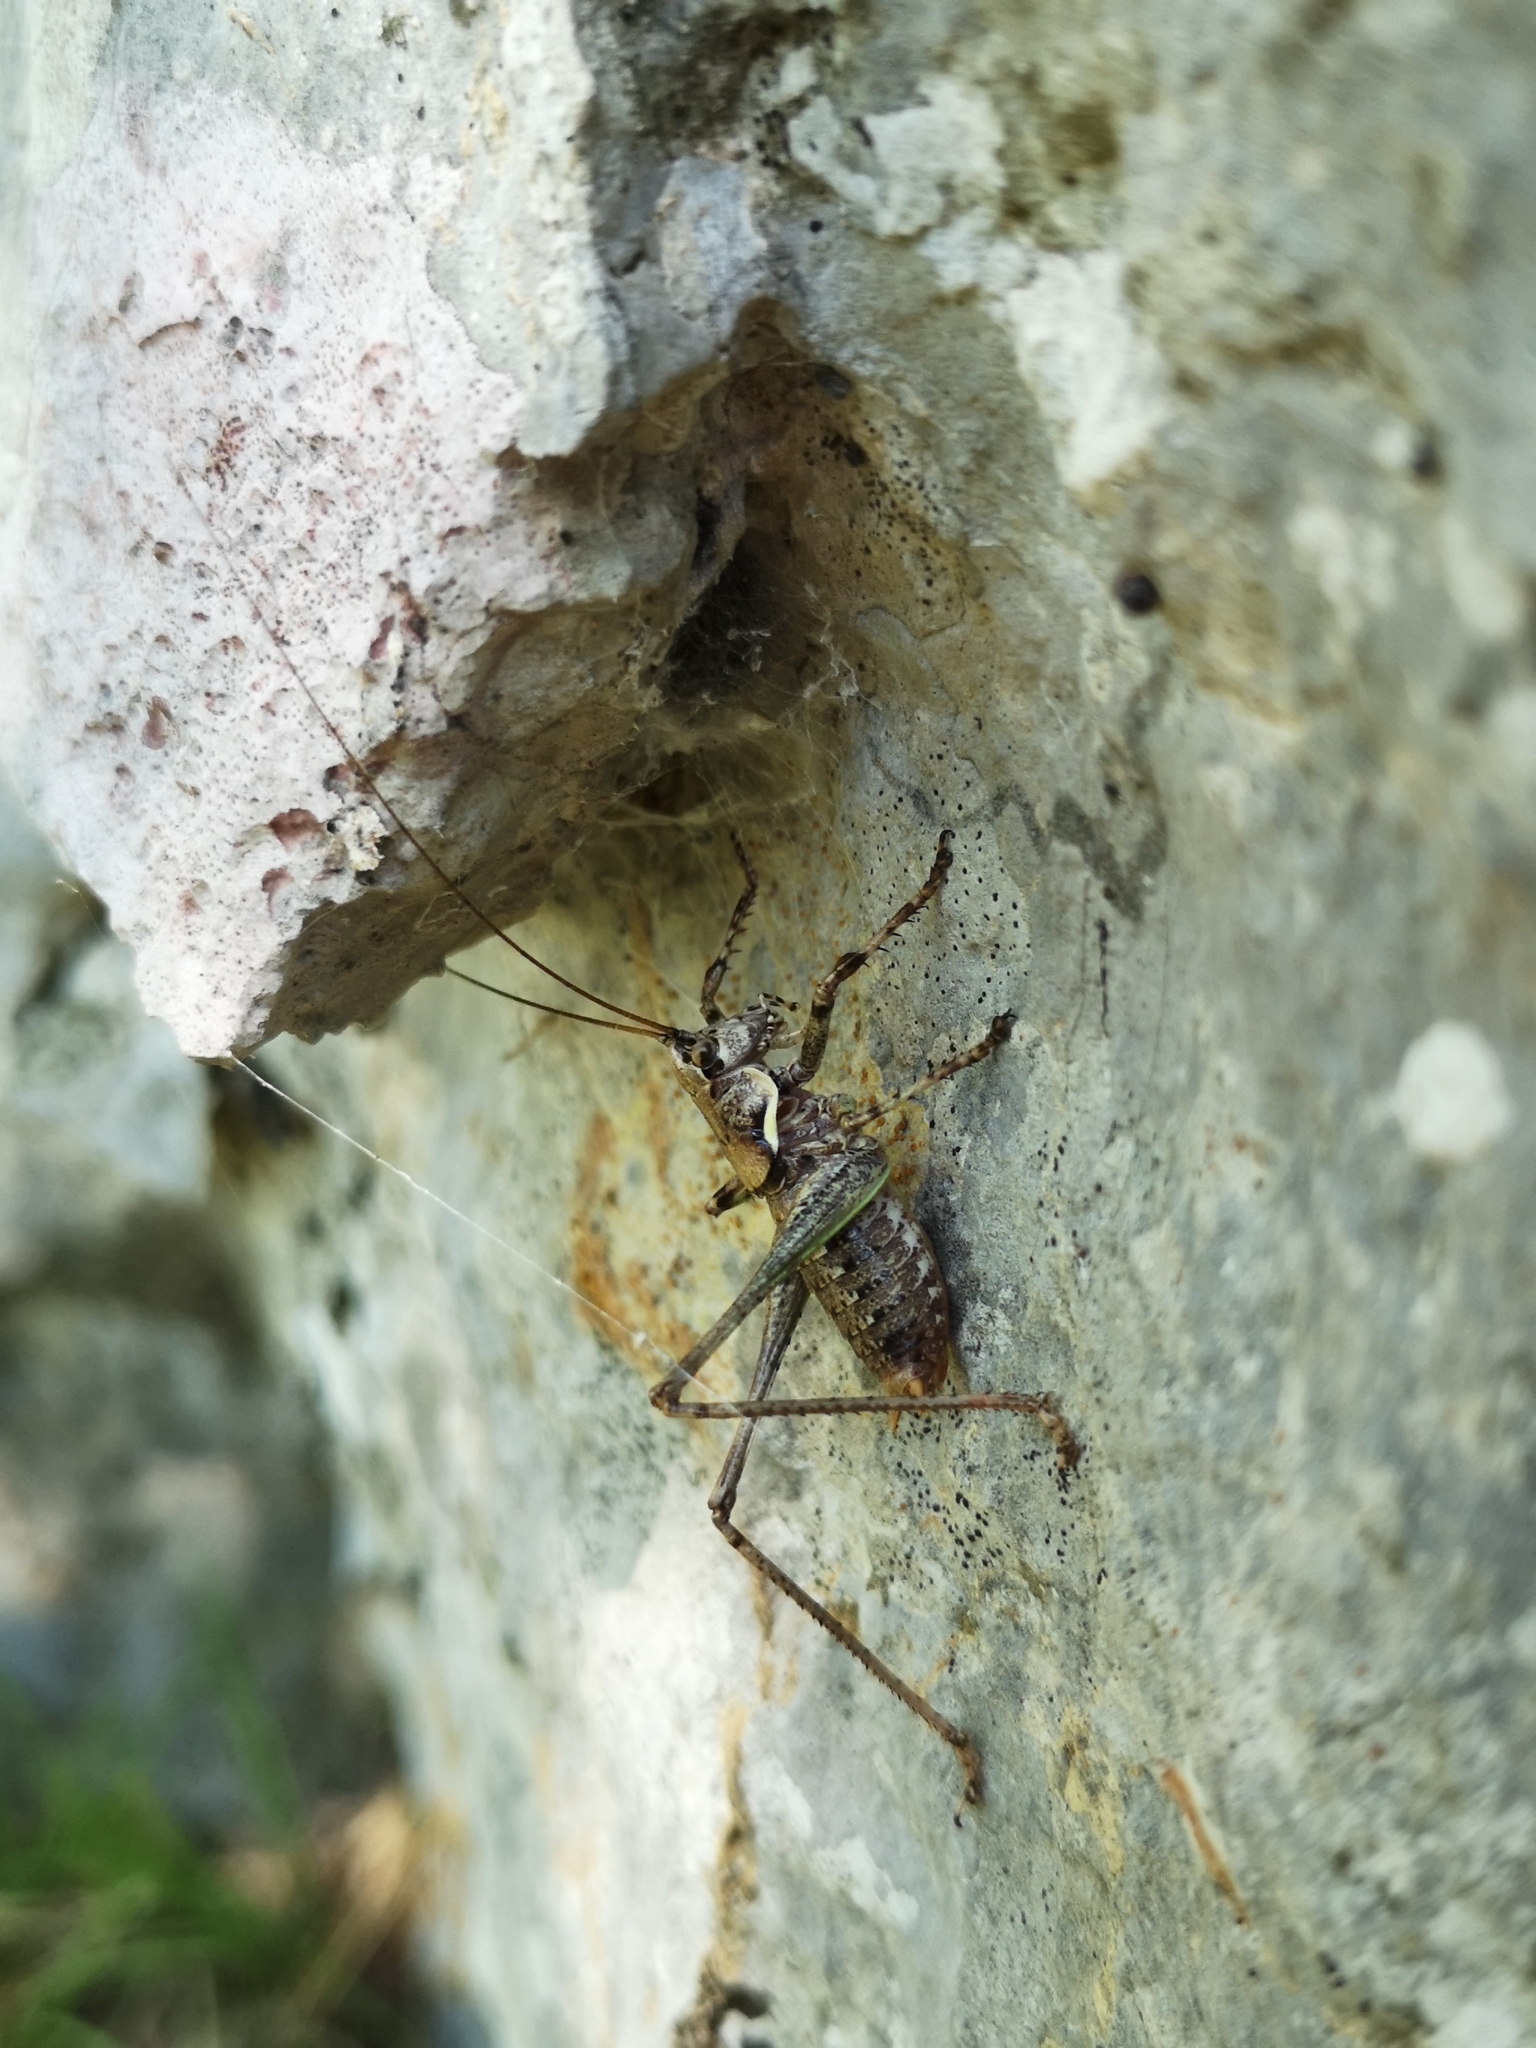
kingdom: Animalia
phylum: Arthropoda
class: Insecta
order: Orthoptera
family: Tettigoniidae
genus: Antaxius
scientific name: Antaxius pedestris
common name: Common mountain bush-cricket
